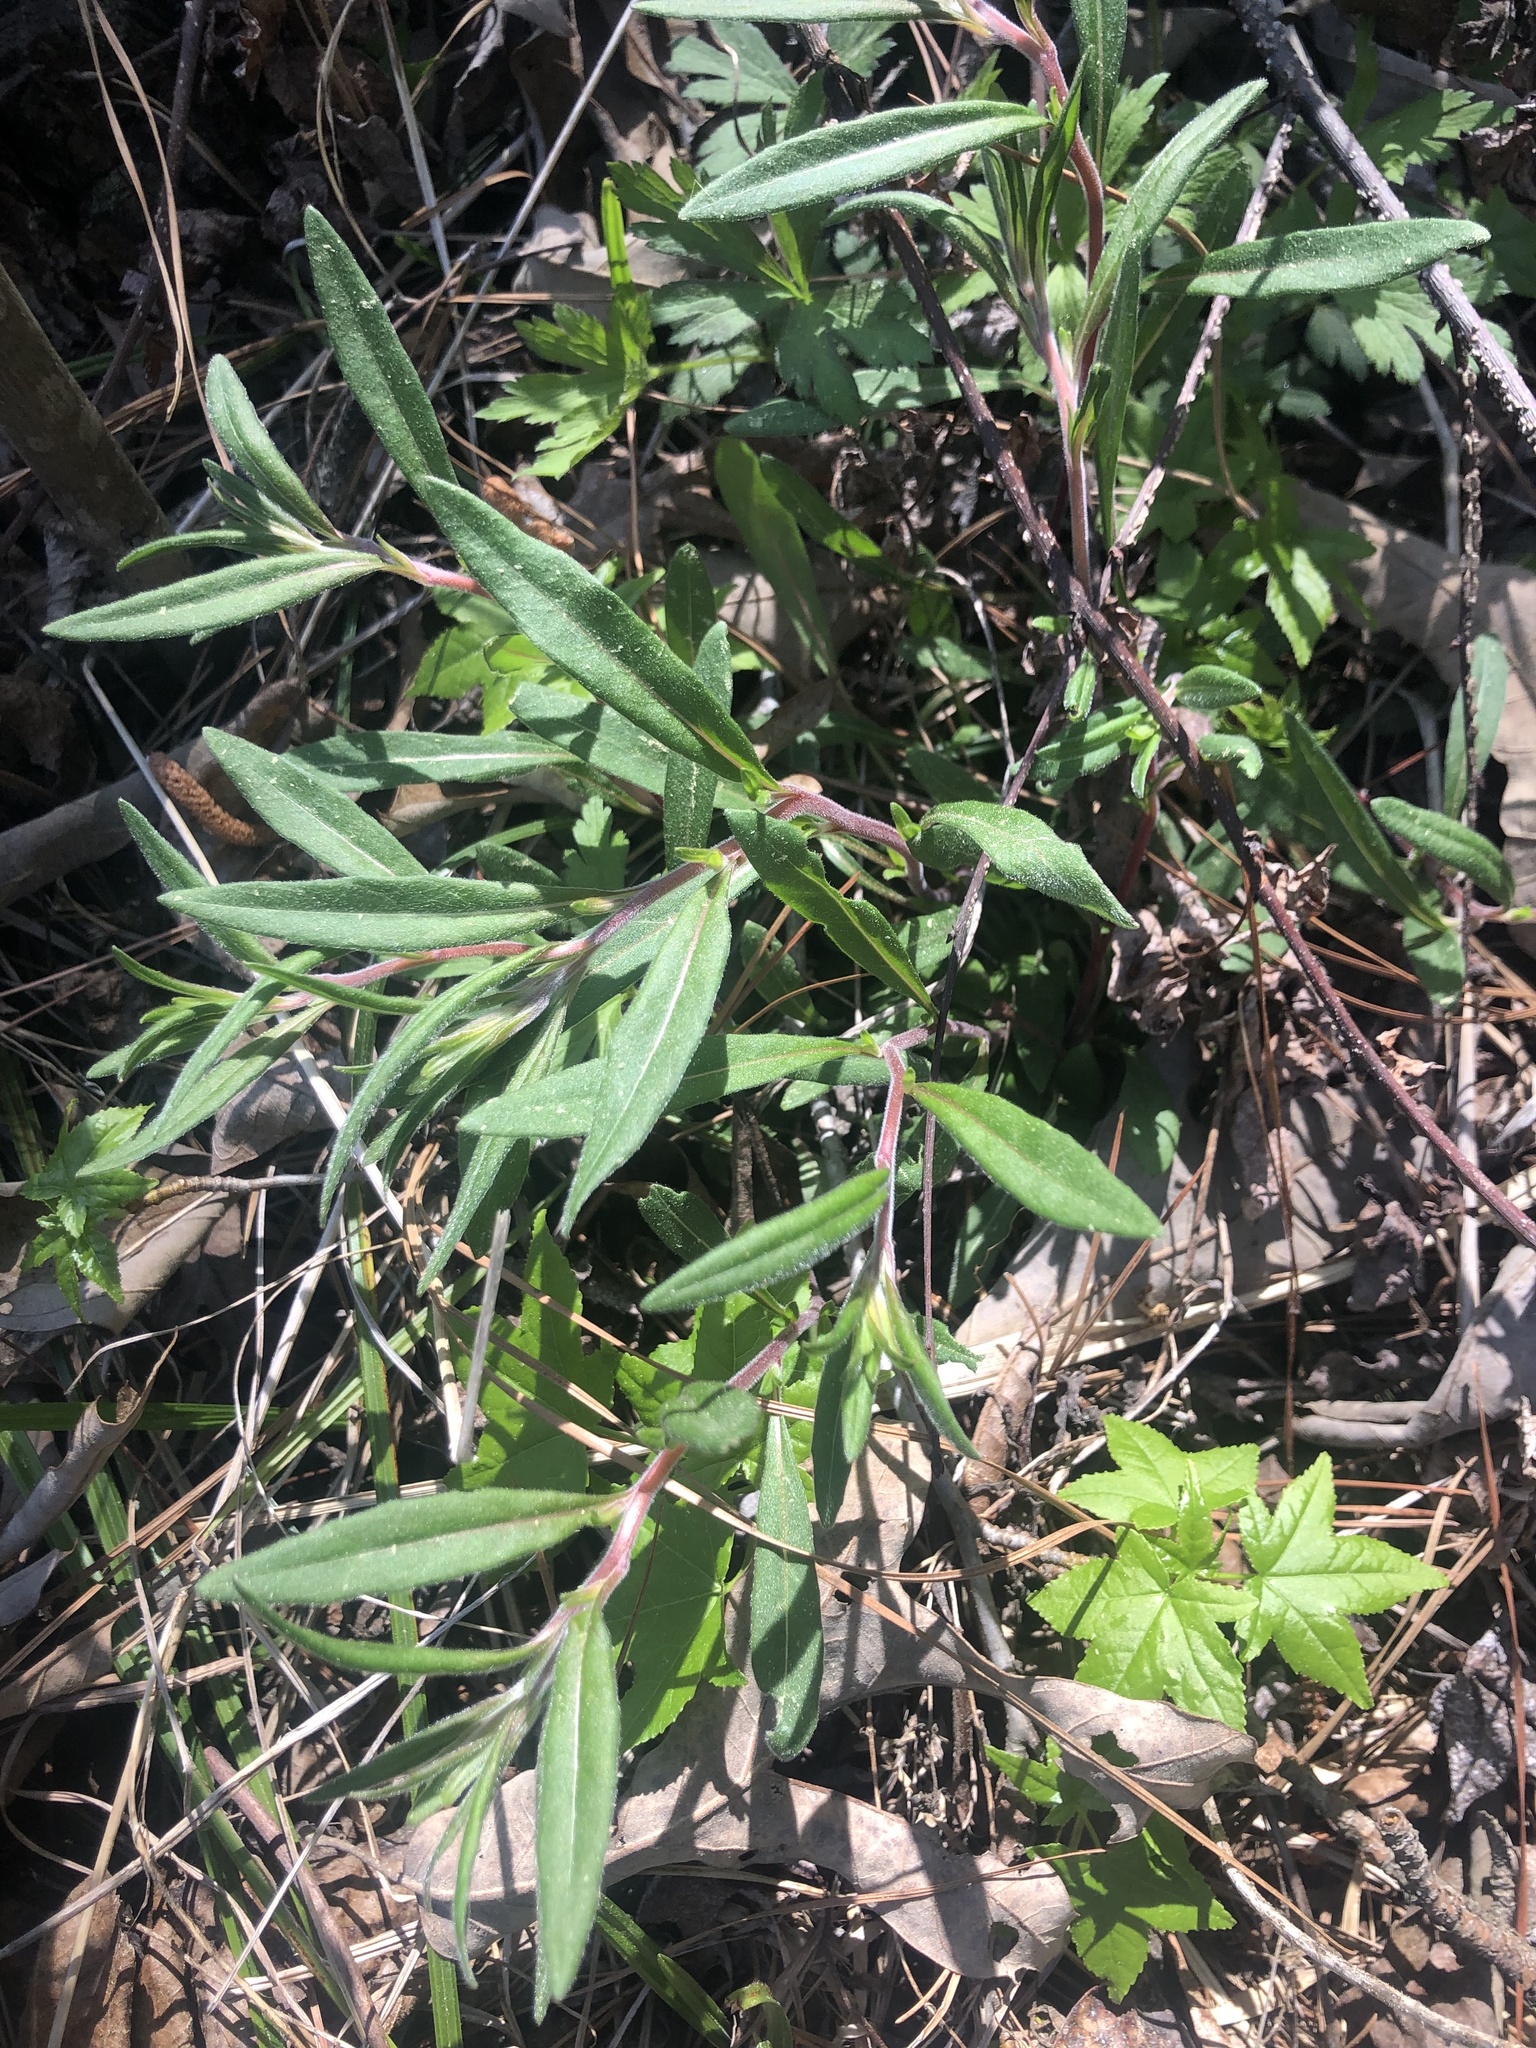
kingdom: Plantae
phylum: Tracheophyta
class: Magnoliopsida
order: Myrtales
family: Onagraceae
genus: Oenothera
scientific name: Oenothera fruticosa
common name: Southern sundrops
